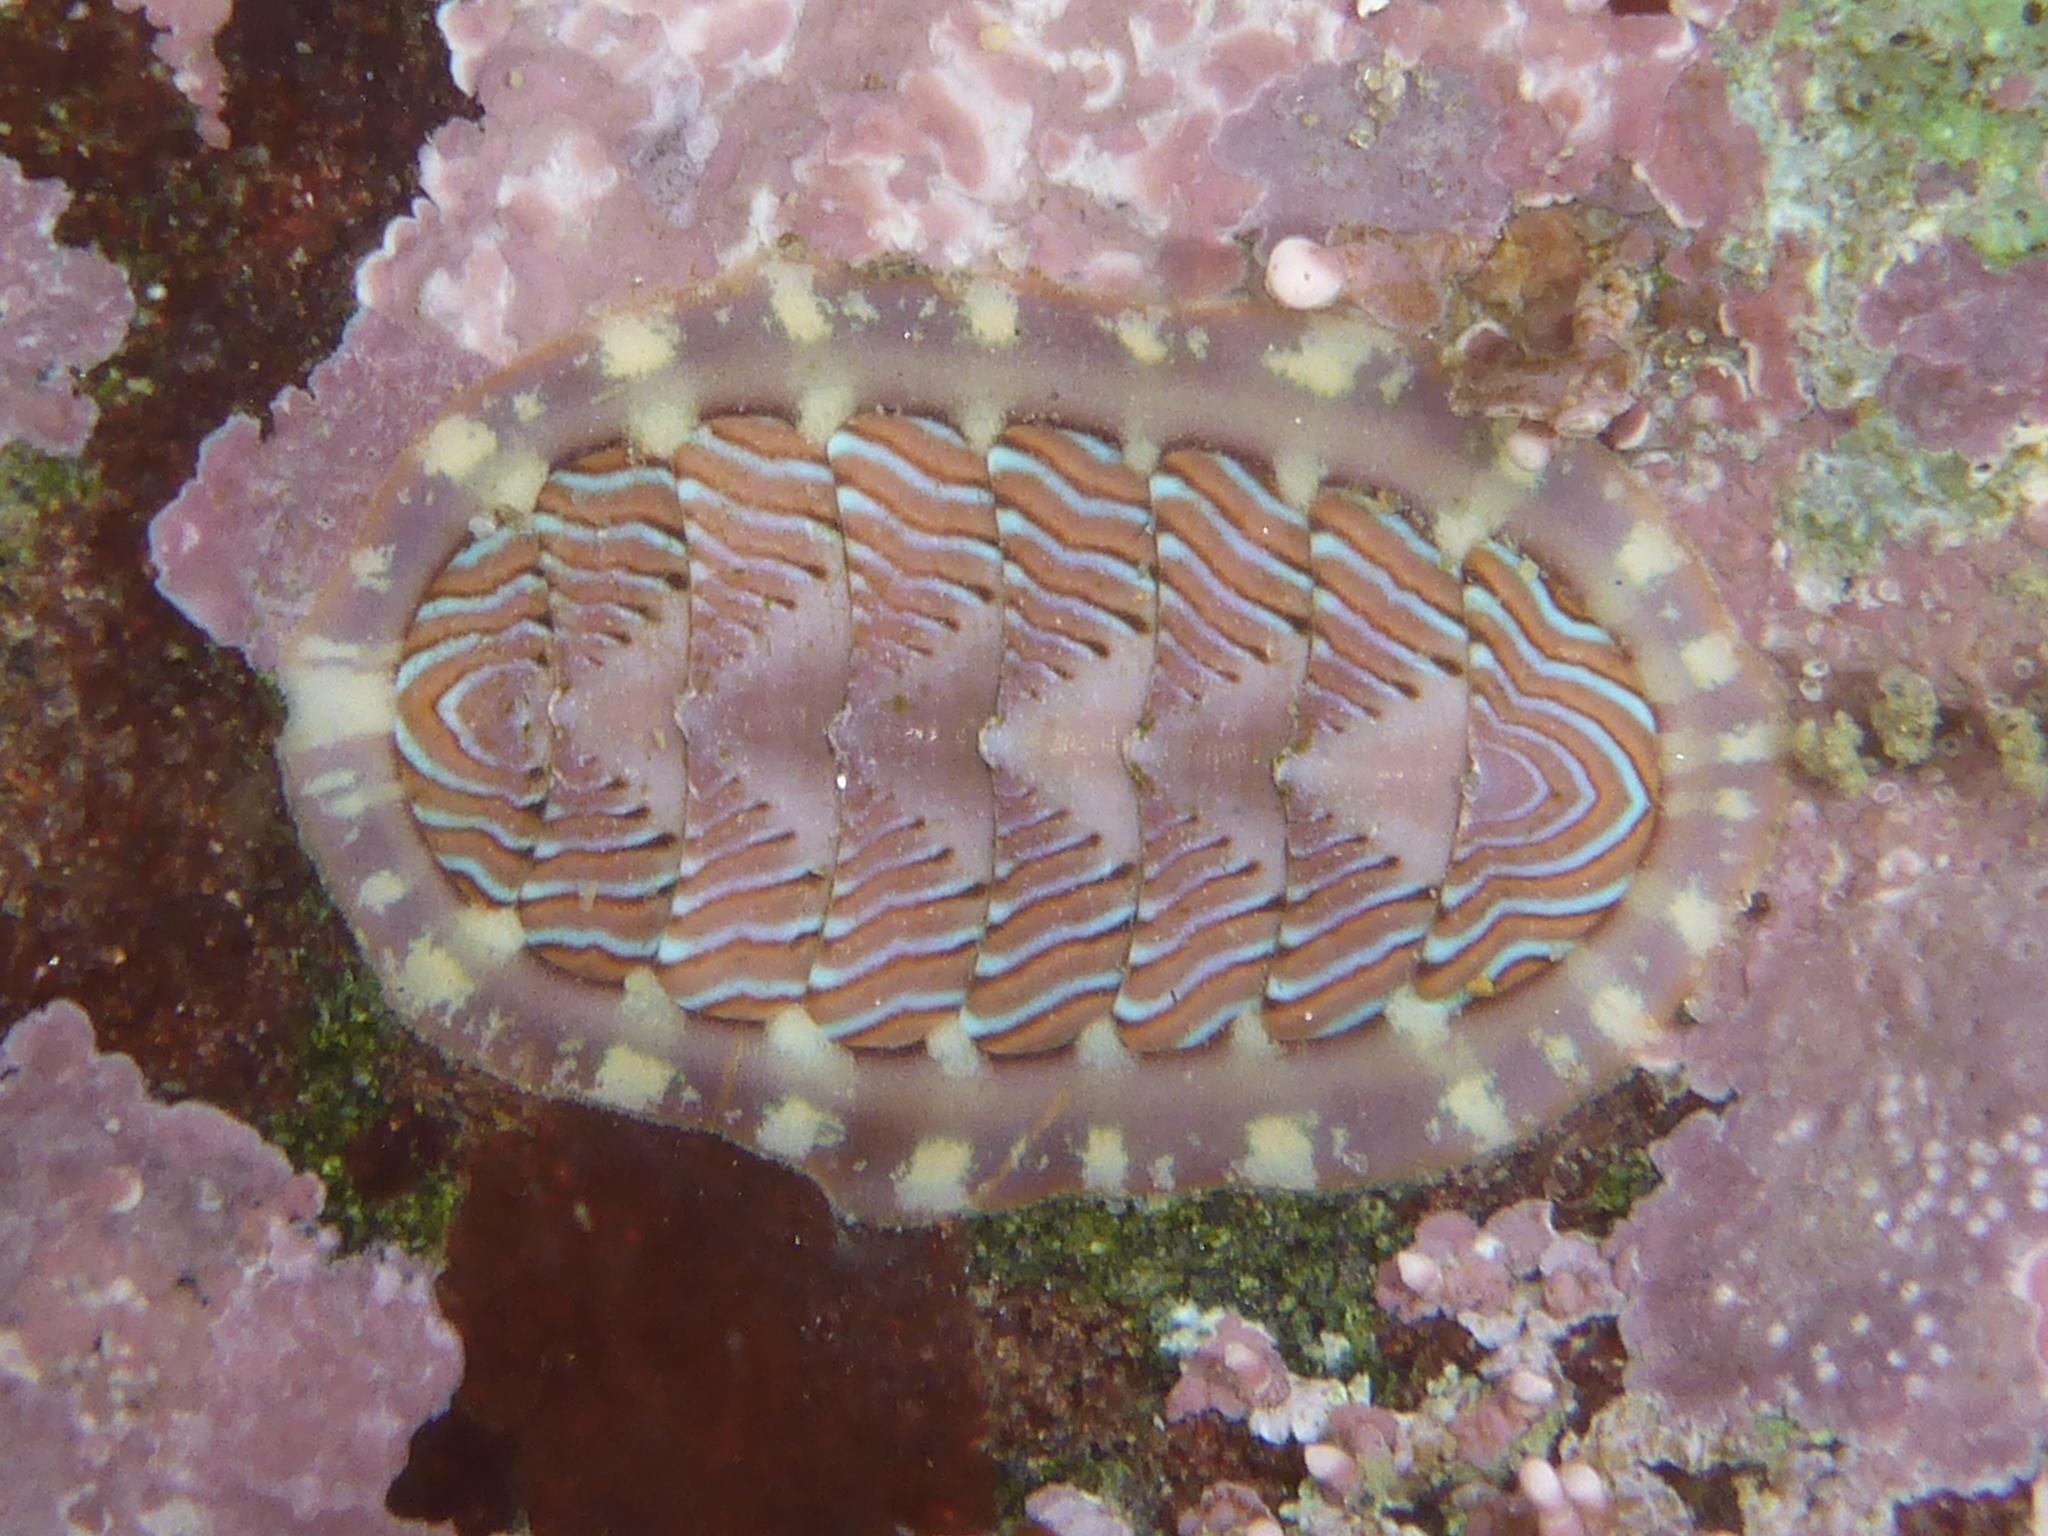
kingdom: Animalia
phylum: Mollusca
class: Polyplacophora
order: Chitonida
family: Tonicellidae
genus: Tonicella
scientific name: Tonicella lineata
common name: Lined chiton
